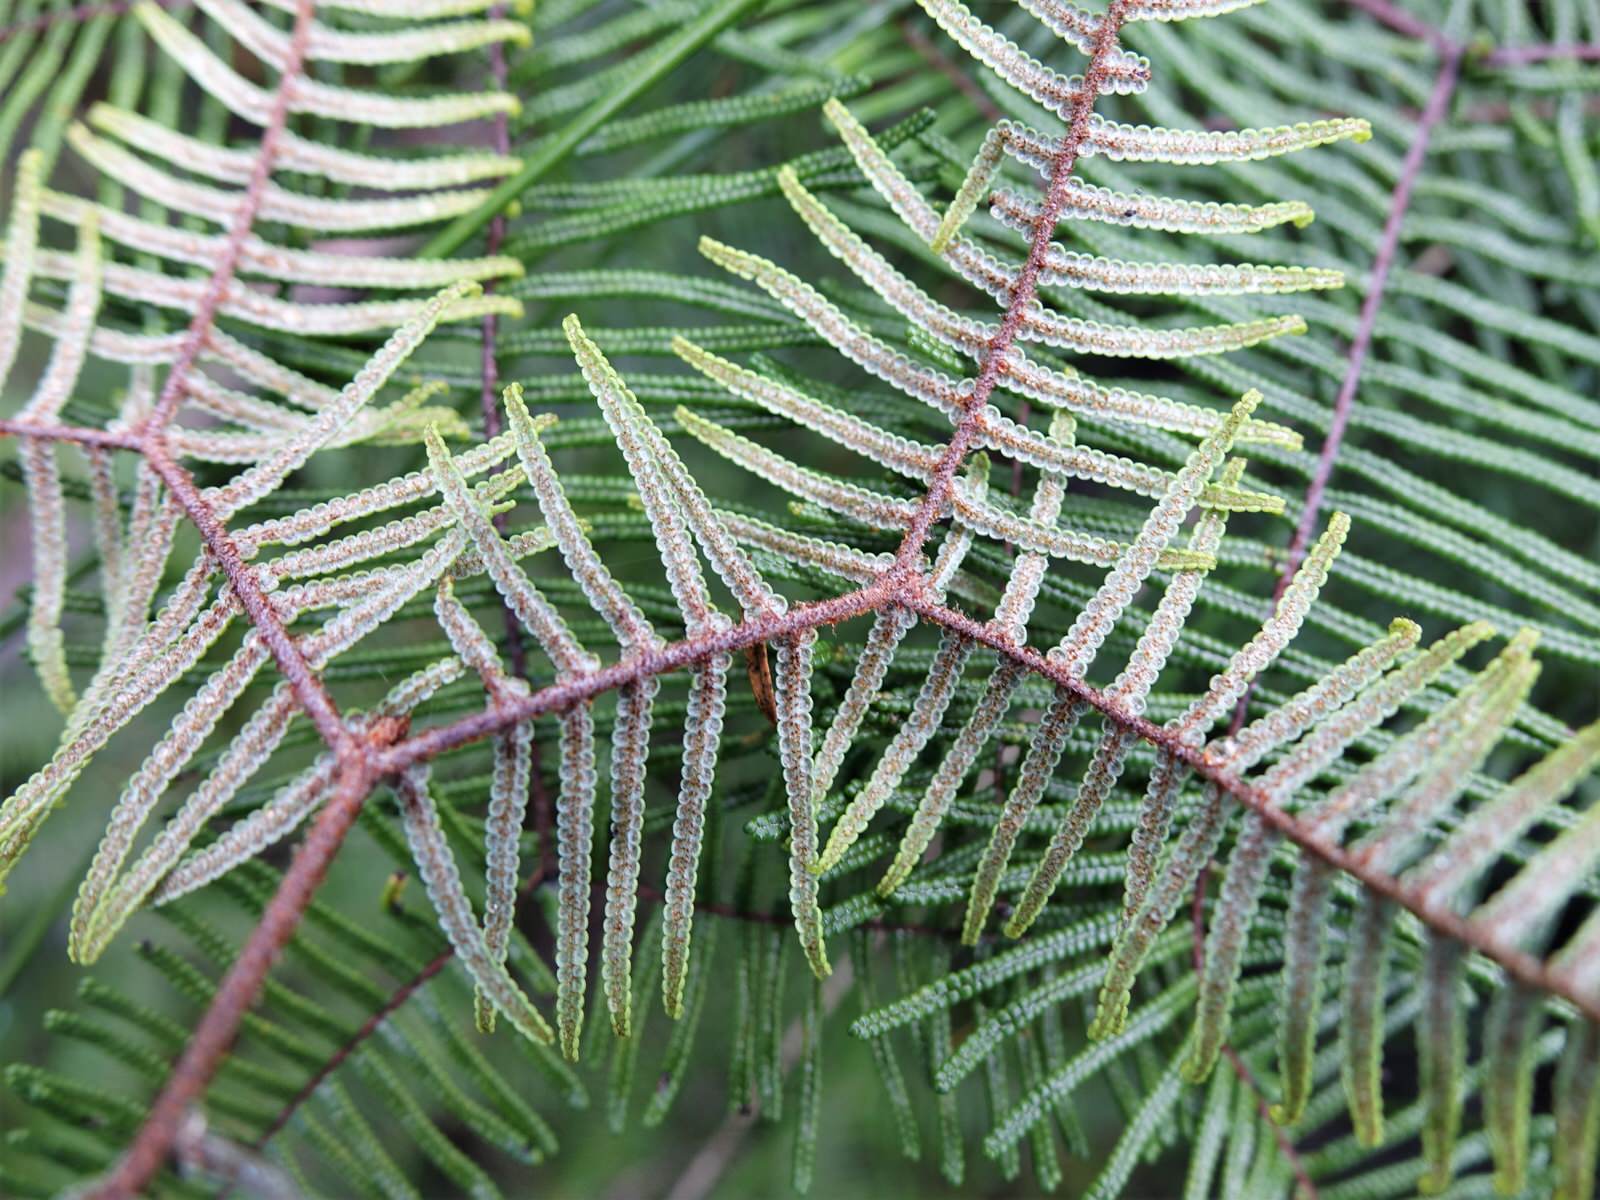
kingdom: Plantae
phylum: Tracheophyta
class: Polypodiopsida
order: Gleicheniales
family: Gleicheniaceae
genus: Gleichenia
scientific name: Gleichenia dicarpa
